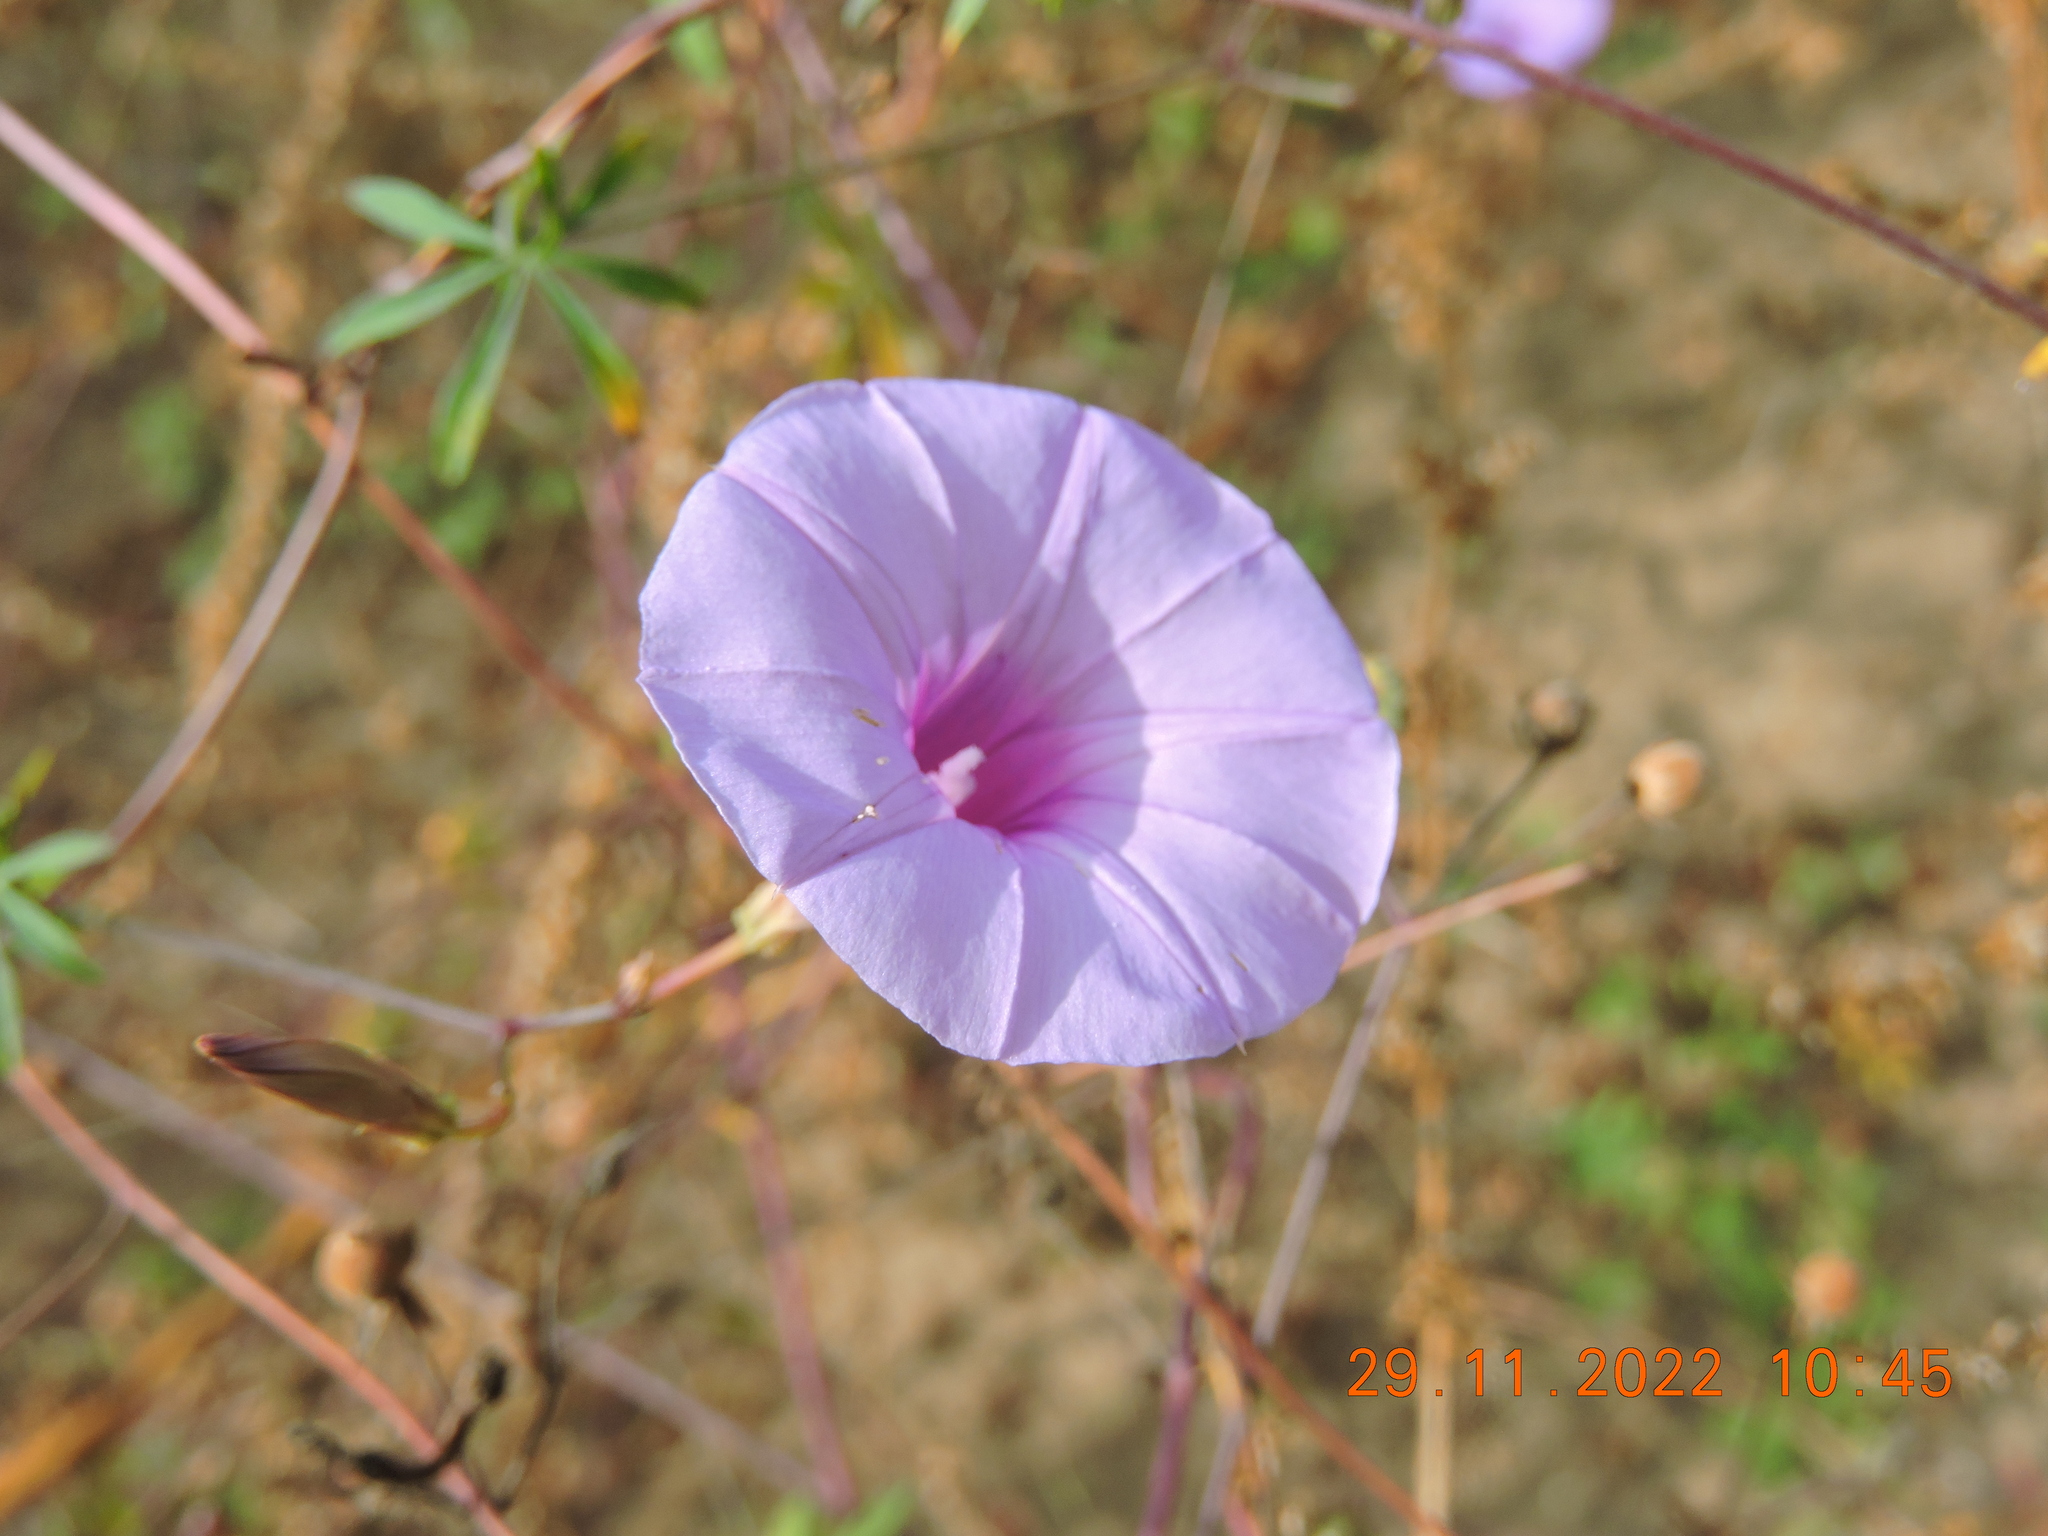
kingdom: Plantae
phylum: Tracheophyta
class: Magnoliopsida
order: Solanales
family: Convolvulaceae
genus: Ipomoea
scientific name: Ipomoea ternifolia
